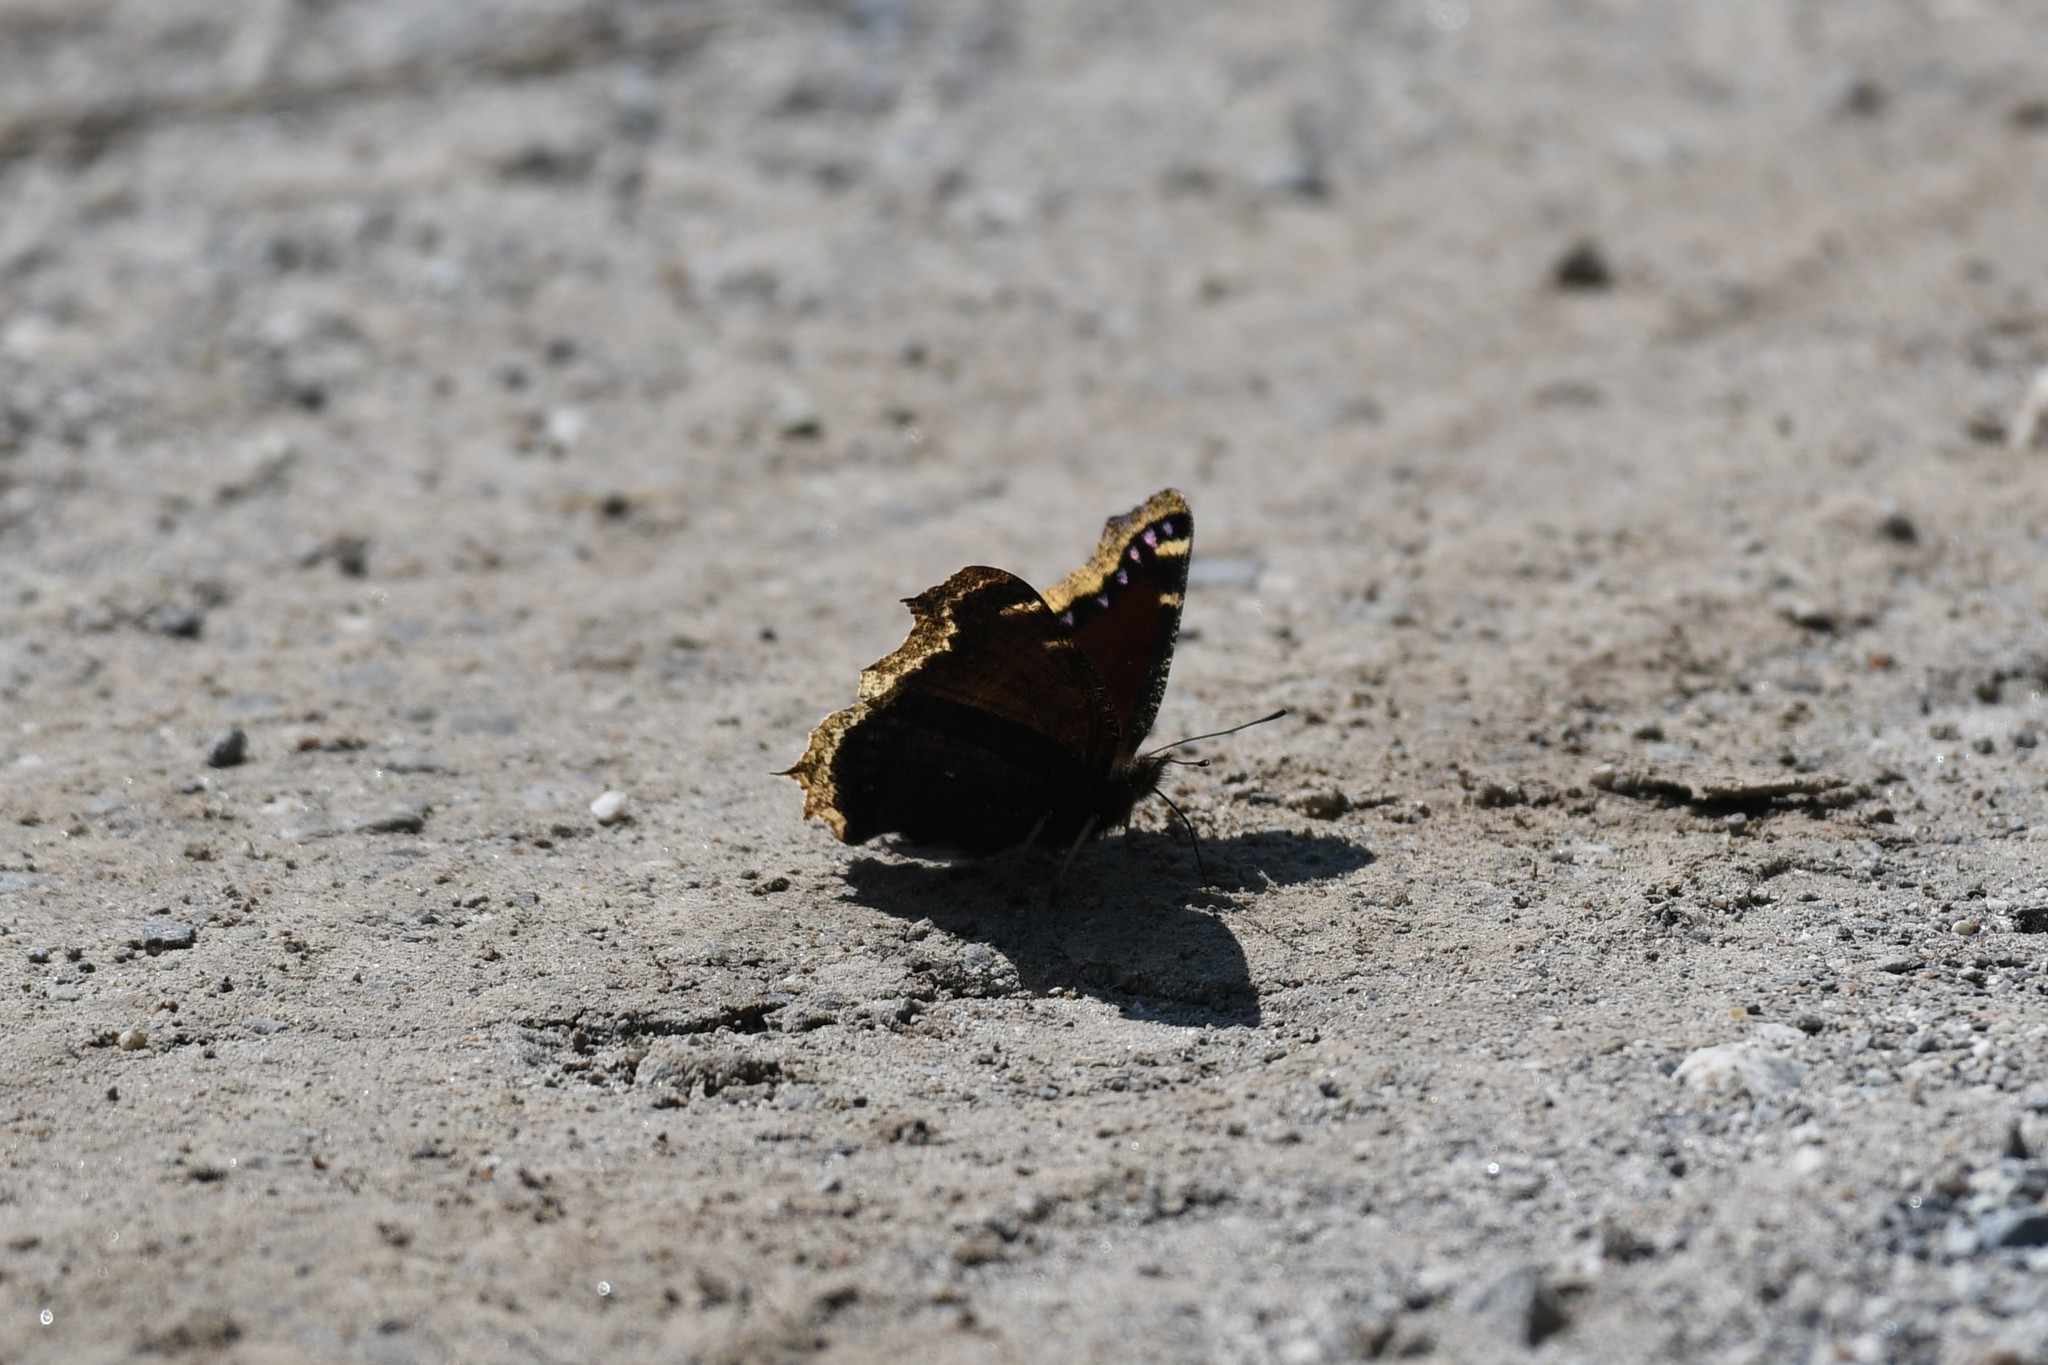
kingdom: Animalia
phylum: Arthropoda
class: Insecta
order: Lepidoptera
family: Nymphalidae
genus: Nymphalis
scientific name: Nymphalis antiopa
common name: Camberwell beauty
